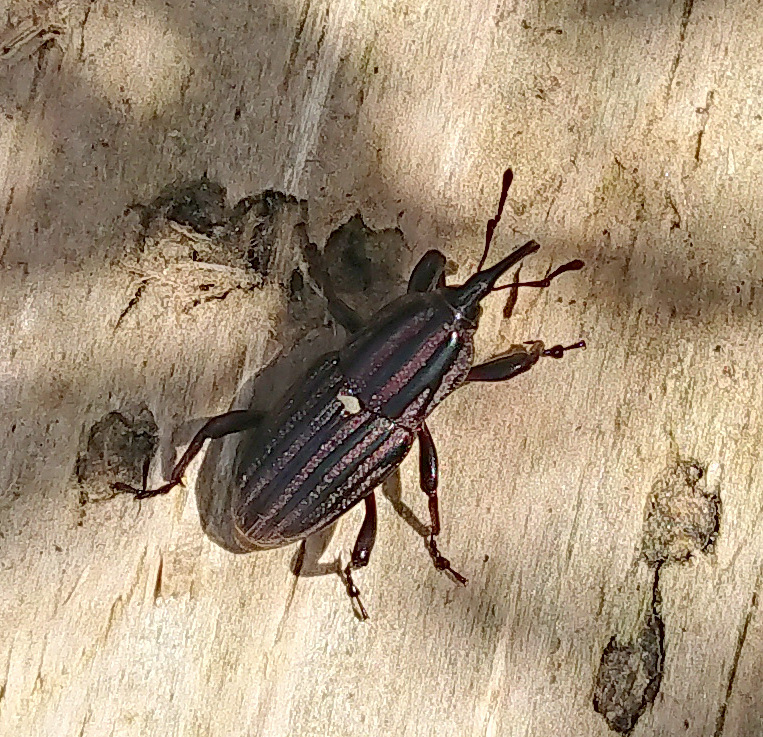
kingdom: Animalia
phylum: Arthropoda
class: Insecta
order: Coleoptera
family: Dryophthoridae
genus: Sphenophorus
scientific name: Sphenophorus costipennis
